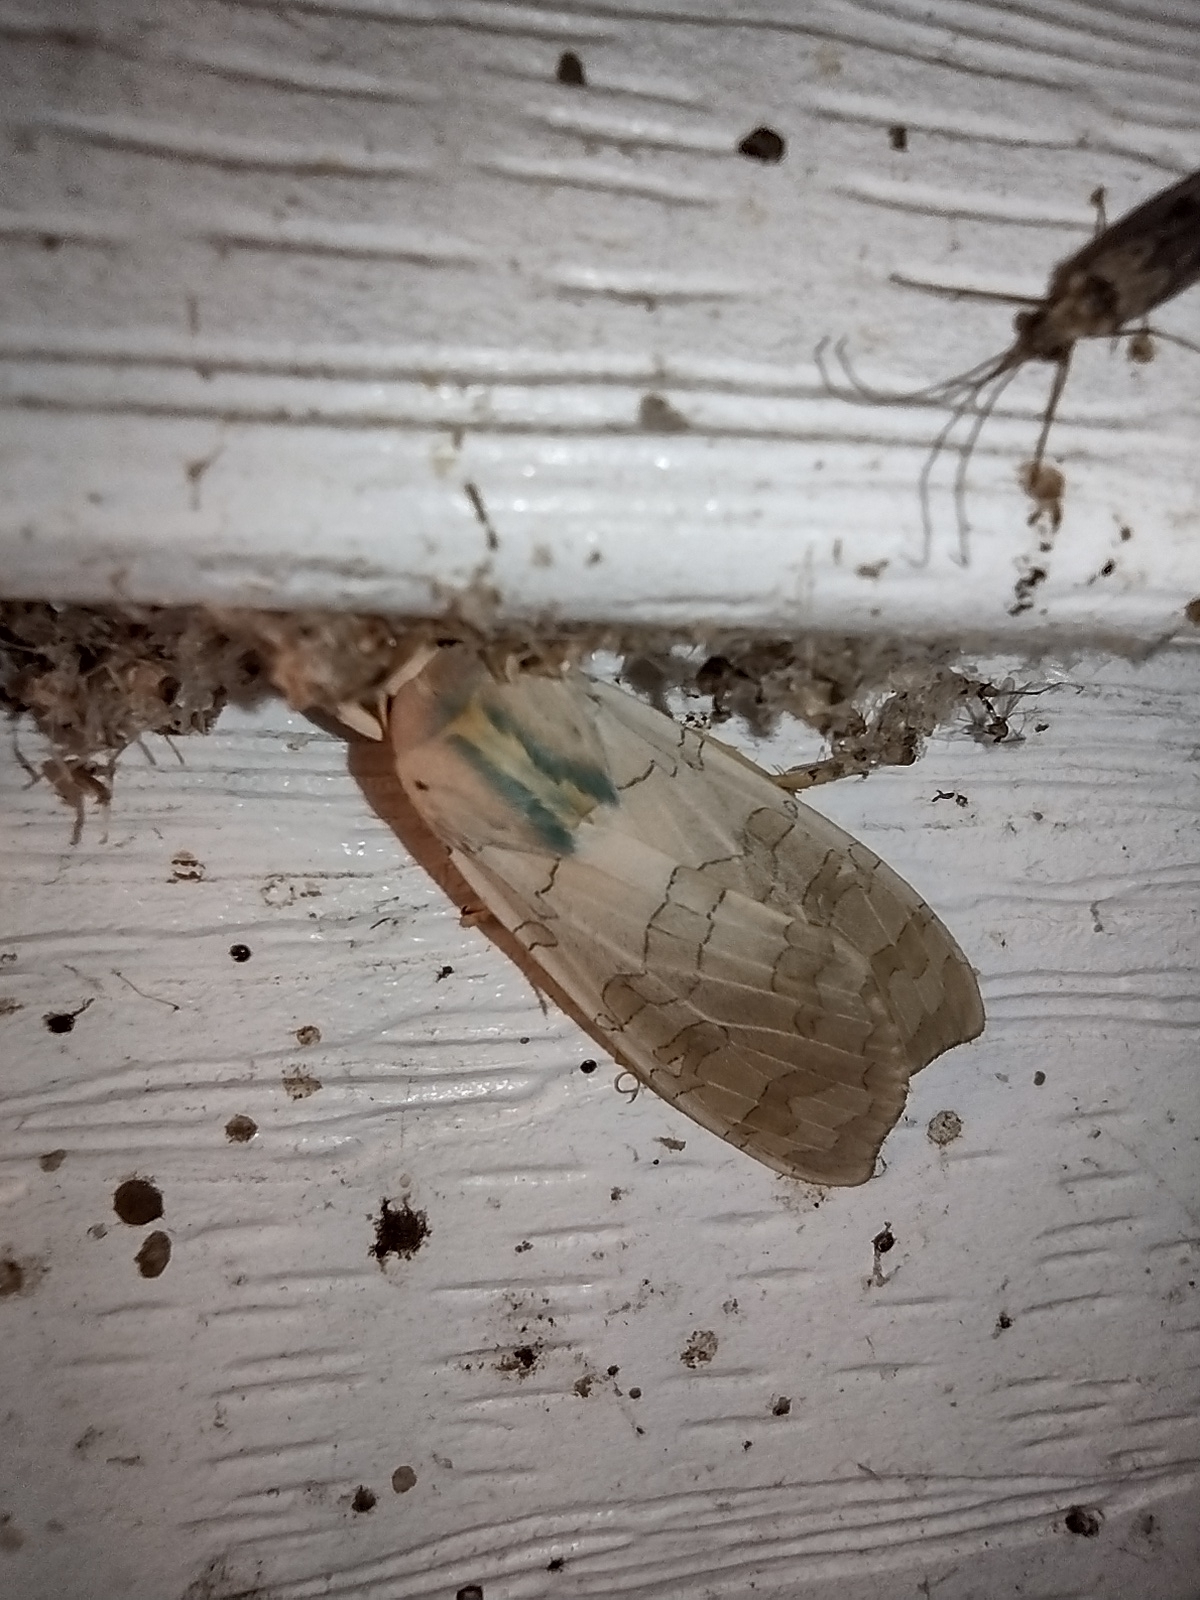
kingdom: Animalia
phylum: Arthropoda
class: Insecta
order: Lepidoptera
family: Erebidae
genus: Halysidota
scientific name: Halysidota tessellaris
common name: Banded tussock moth
